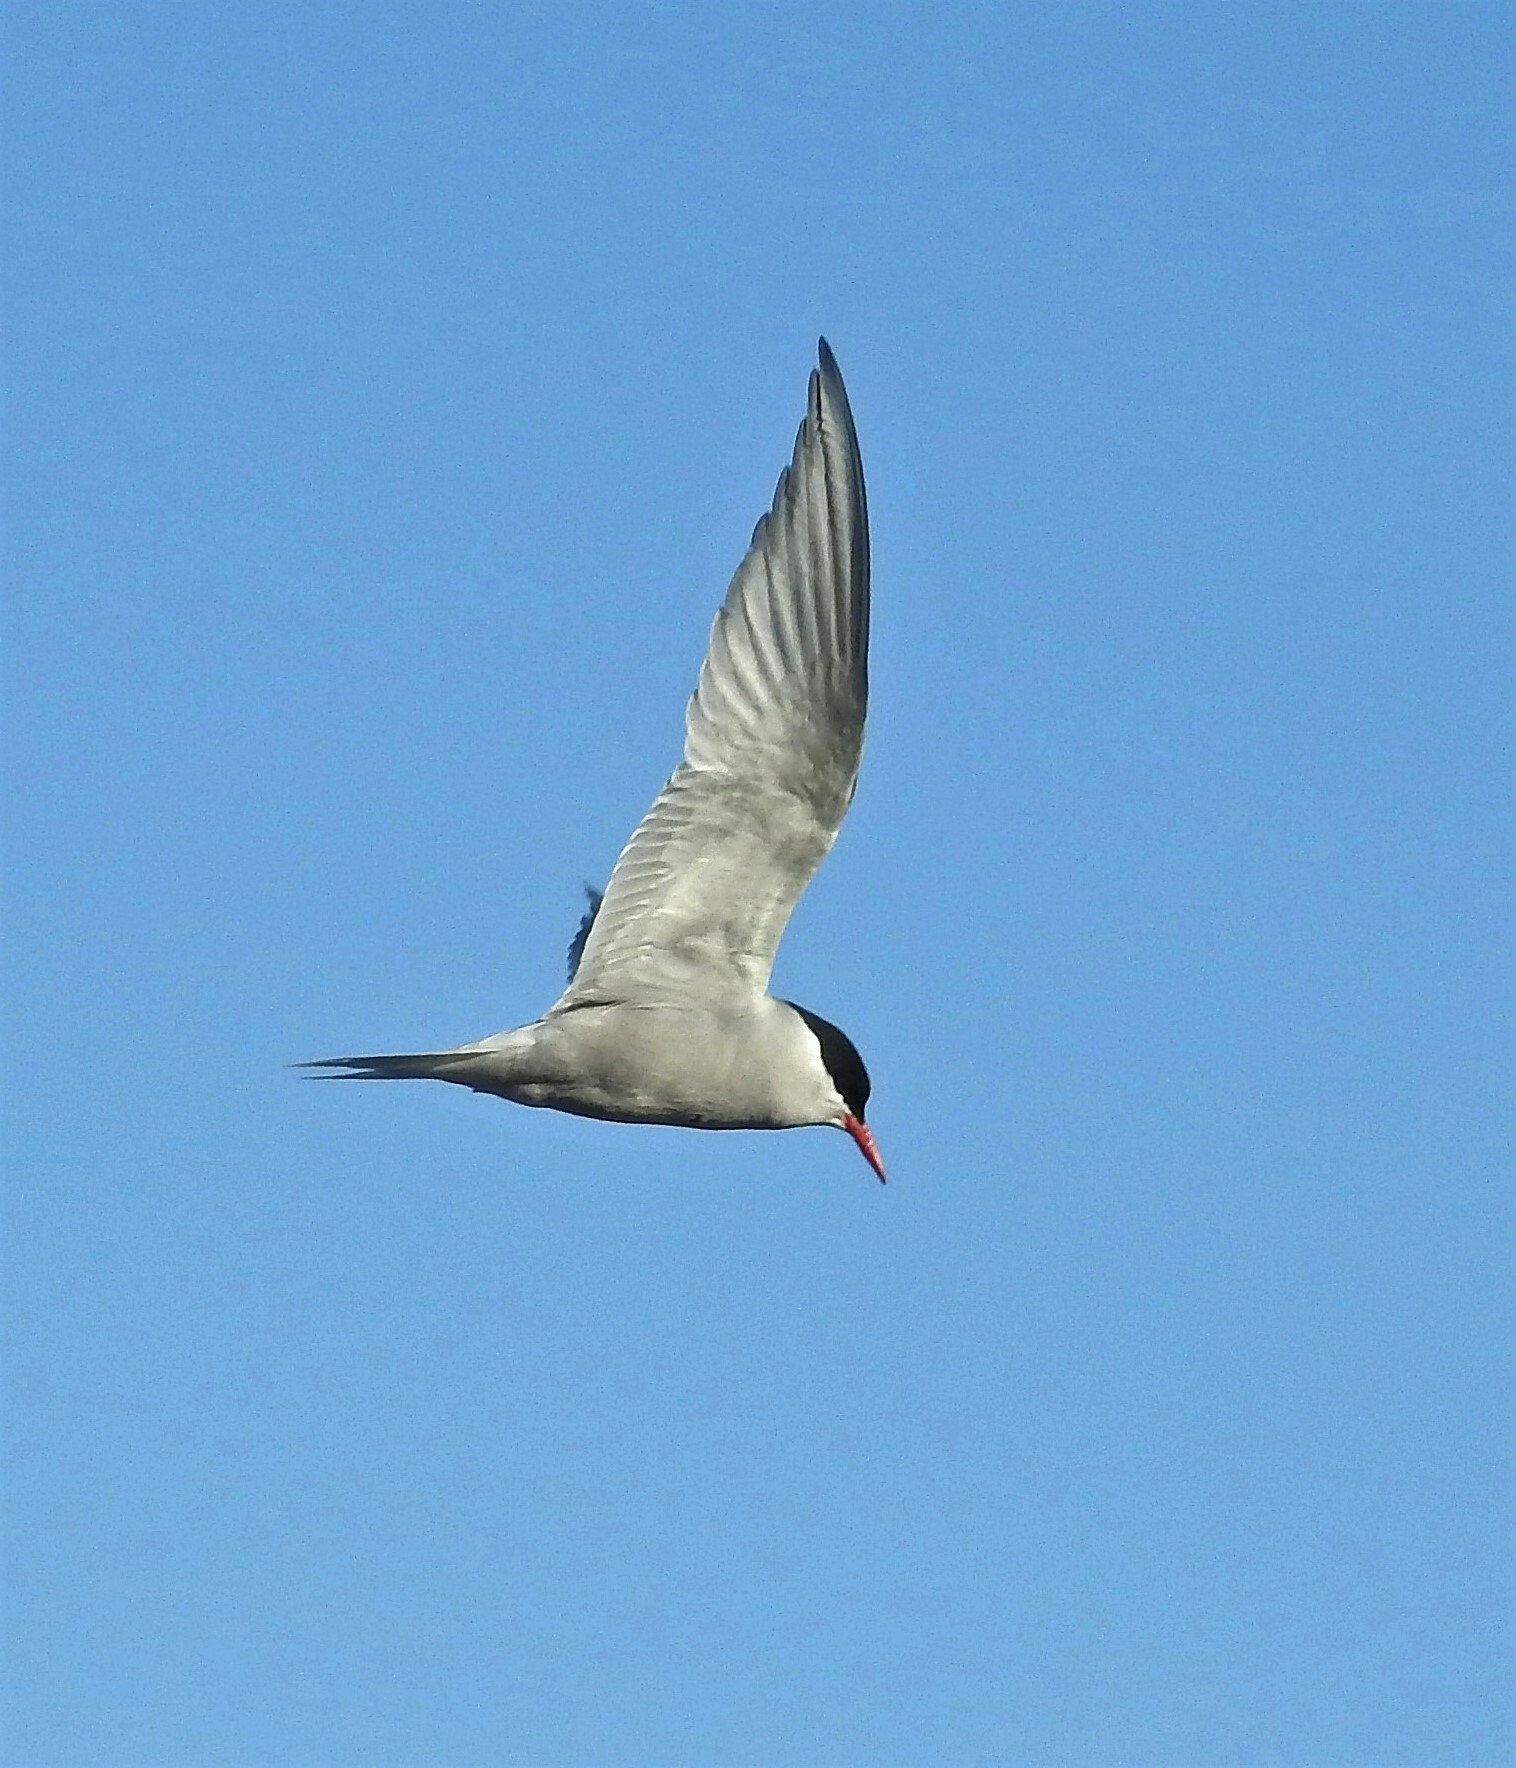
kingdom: Animalia
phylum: Chordata
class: Aves
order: Charadriiformes
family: Laridae
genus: Sterna
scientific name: Sterna vittata
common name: Antarctic tern
